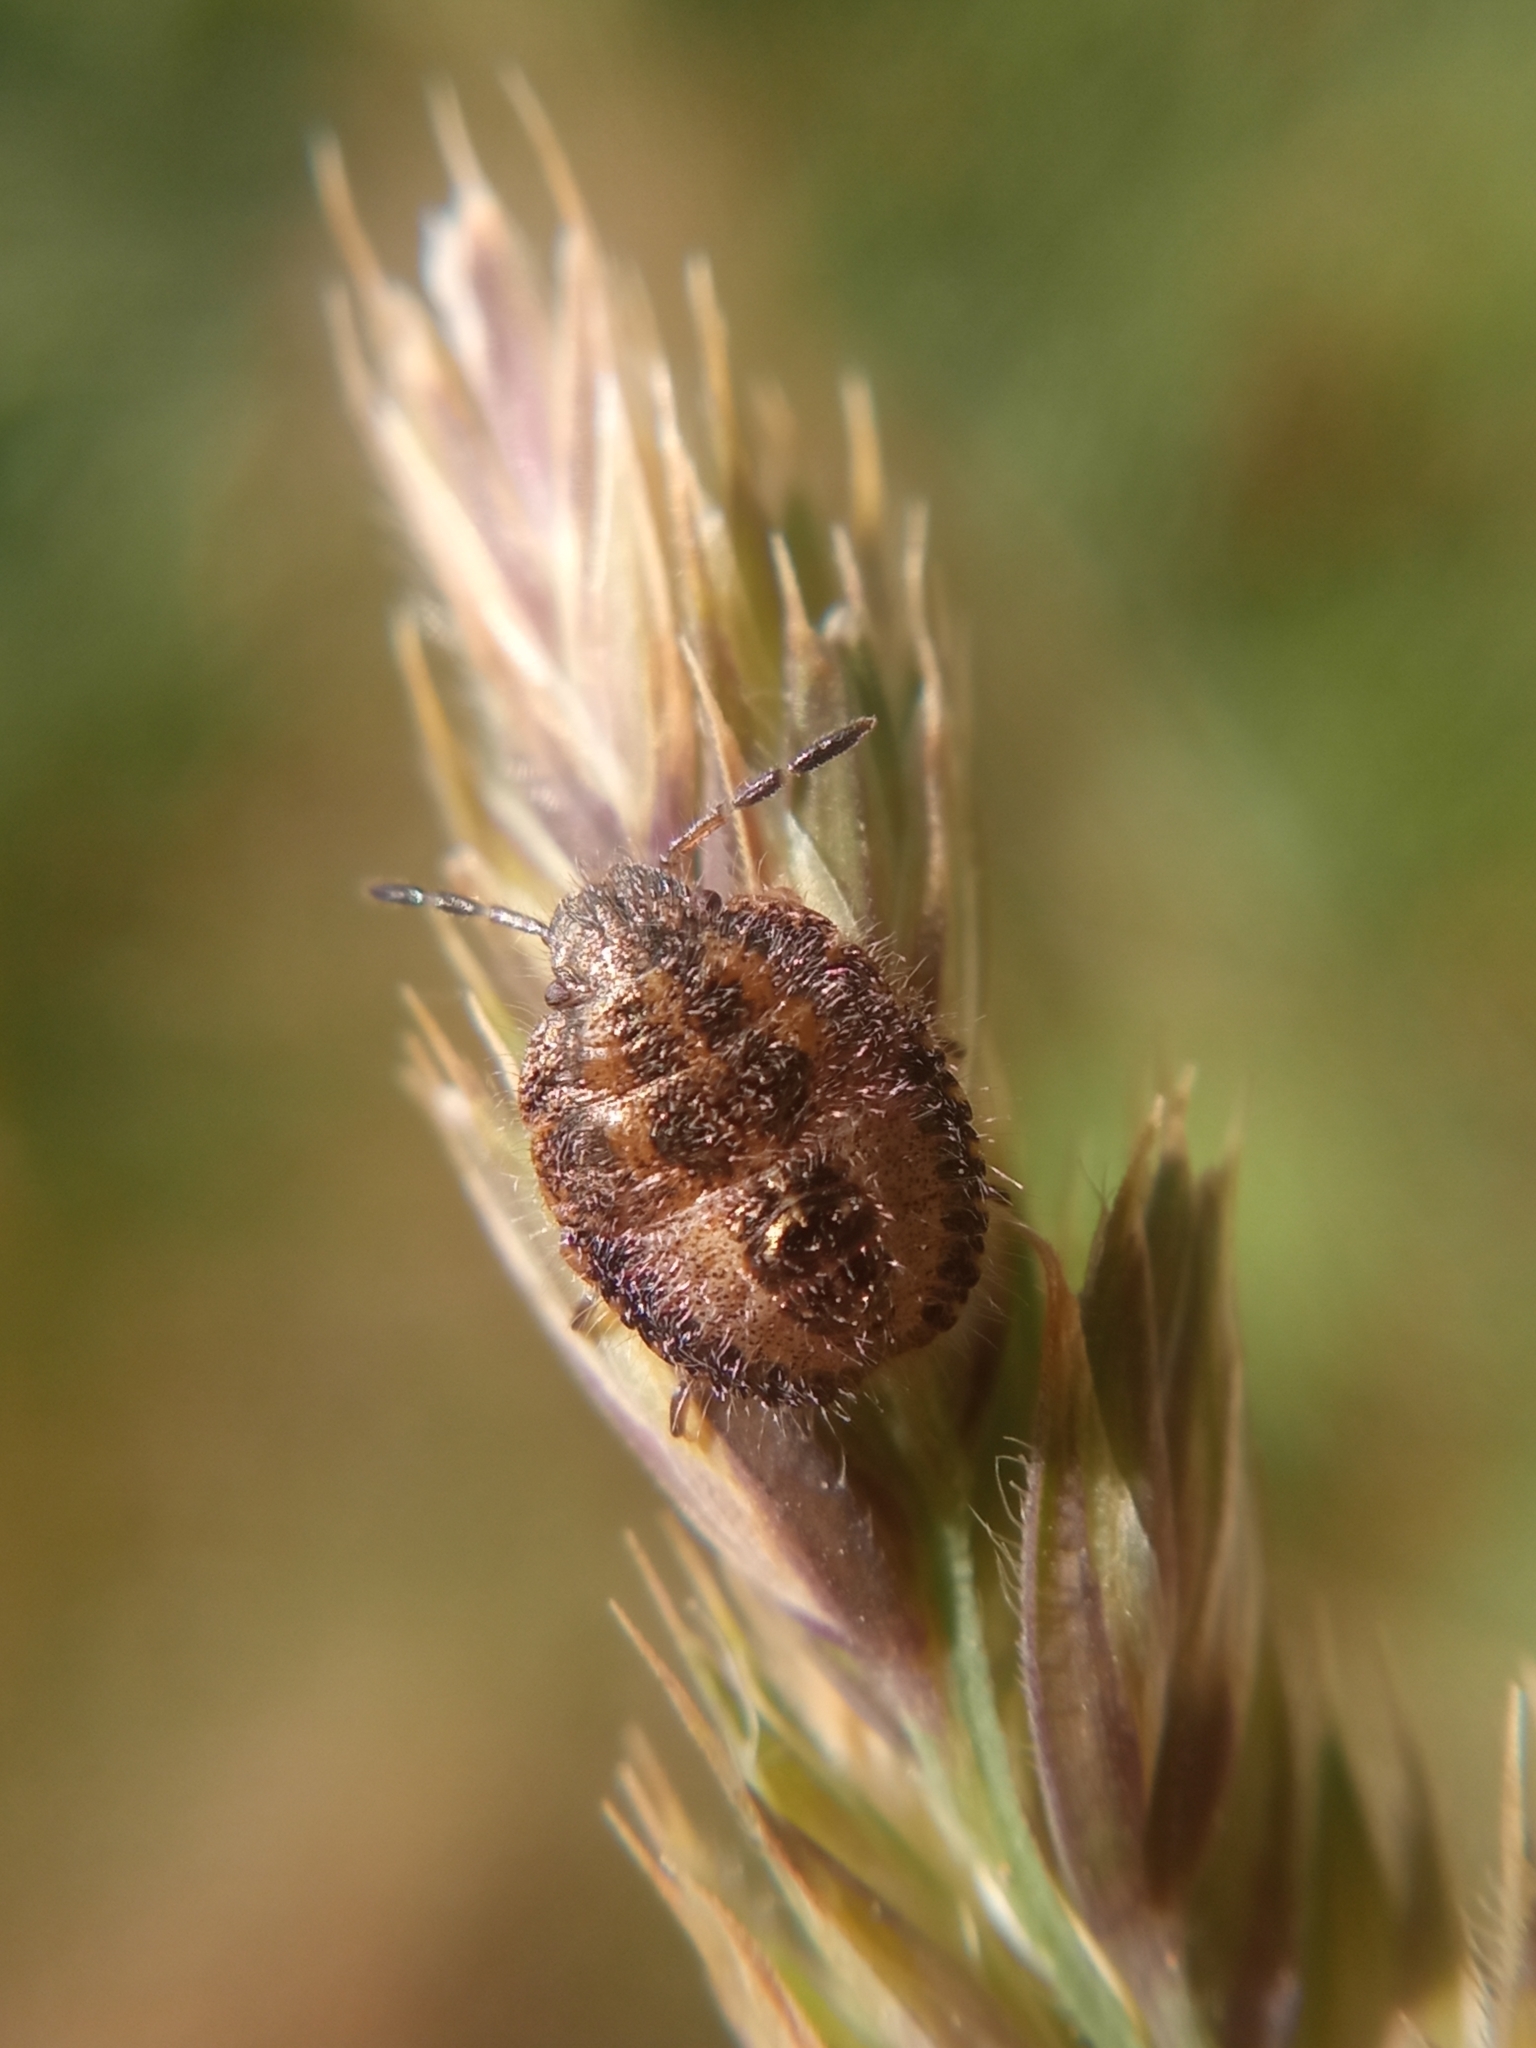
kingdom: Animalia
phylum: Arthropoda
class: Insecta
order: Hemiptera
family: Pentatomidae
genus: Dolycoris
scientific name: Dolycoris baccarum
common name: Sloe bug
